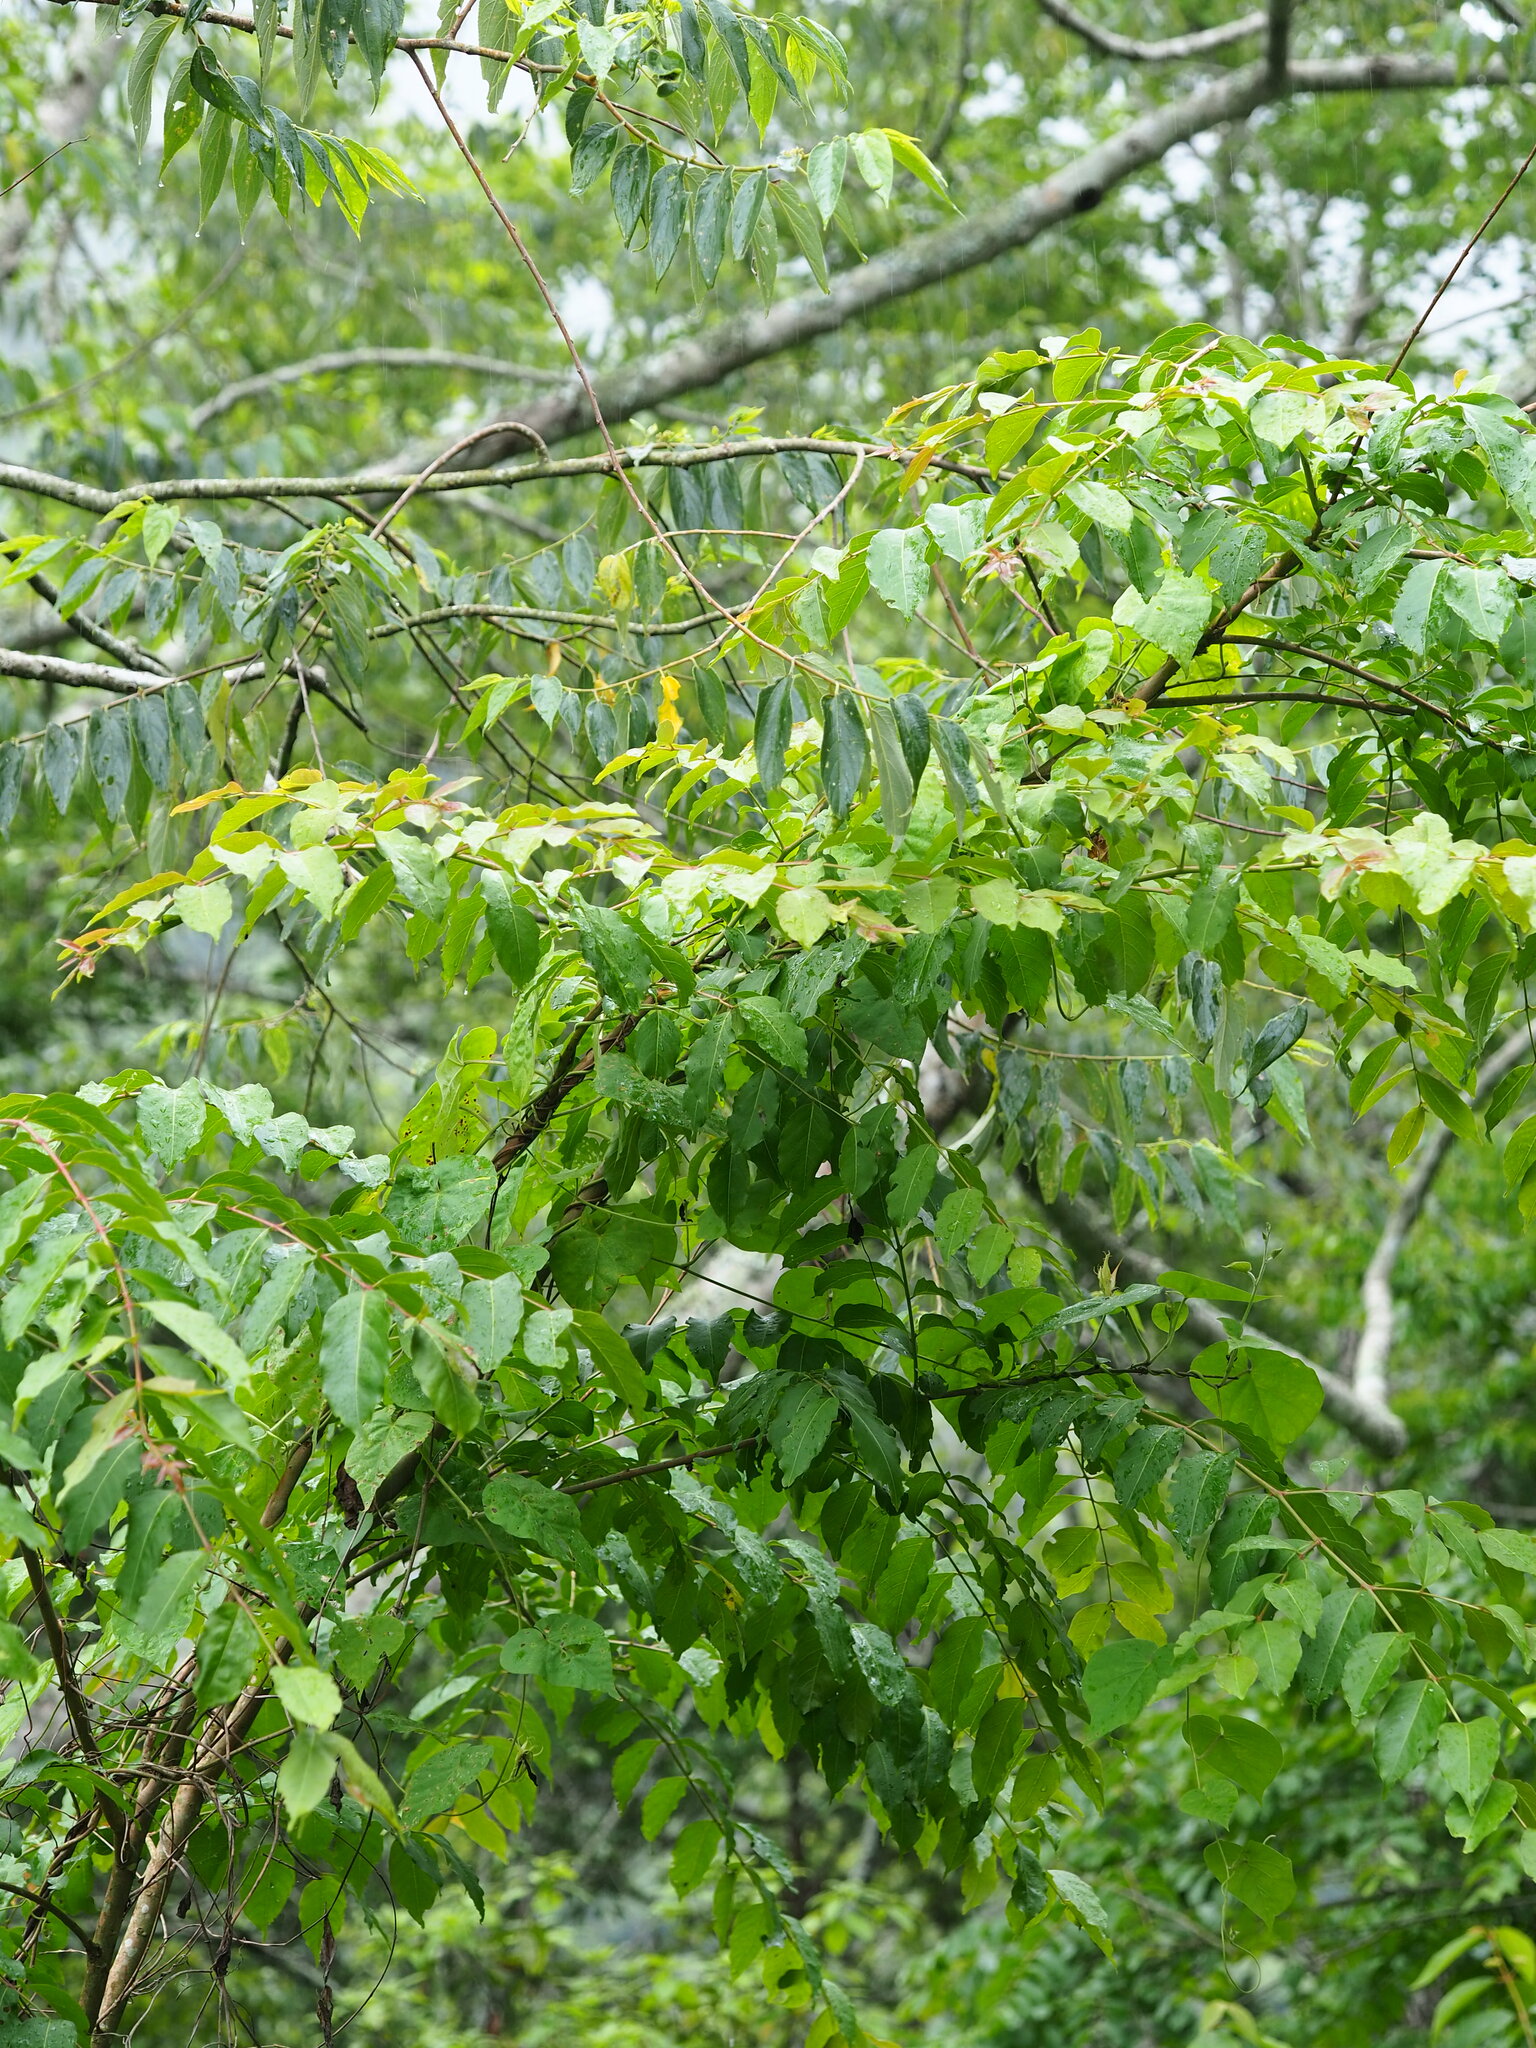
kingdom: Plantae
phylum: Tracheophyta
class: Magnoliopsida
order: Myrtales
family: Lythraceae
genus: Lagerstroemia
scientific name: Lagerstroemia subcostata
